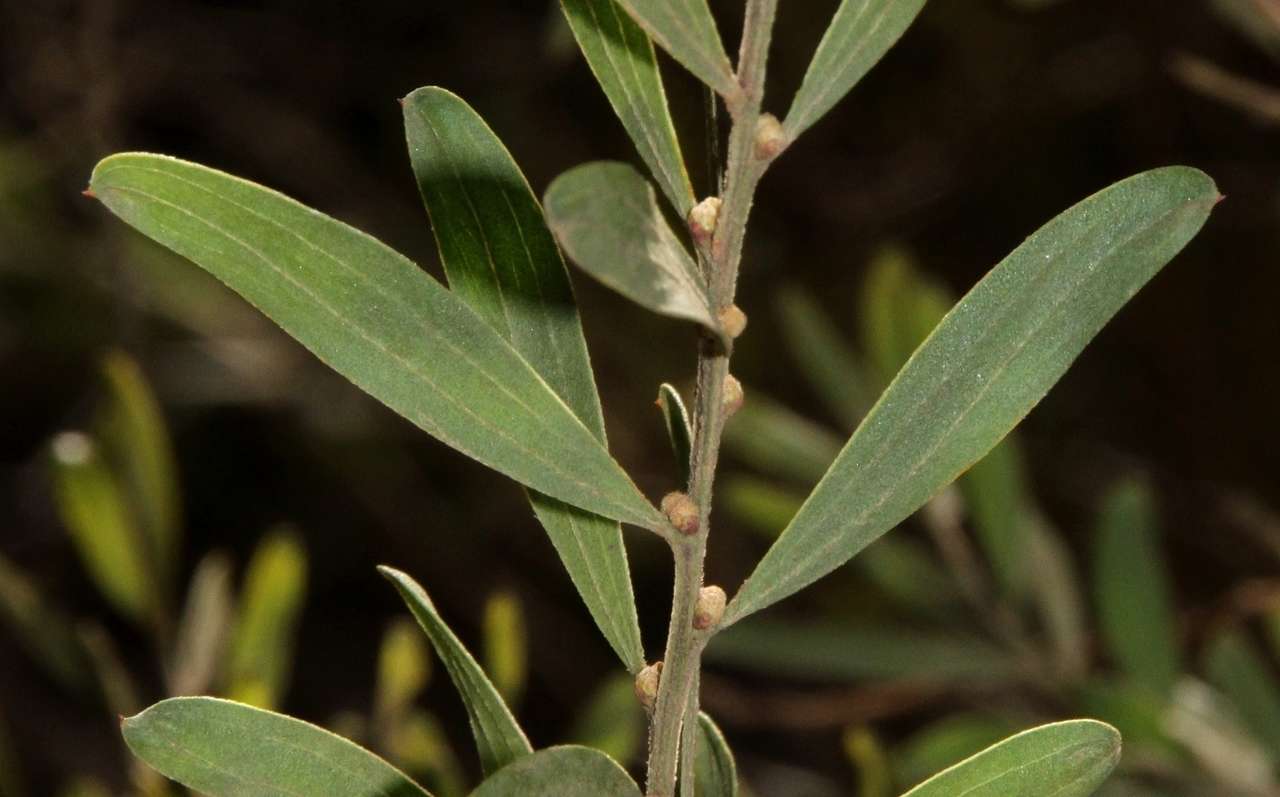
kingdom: Plantae
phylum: Tracheophyta
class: Magnoliopsida
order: Fabales
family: Fabaceae
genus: Acacia
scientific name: Acacia rostriformis
